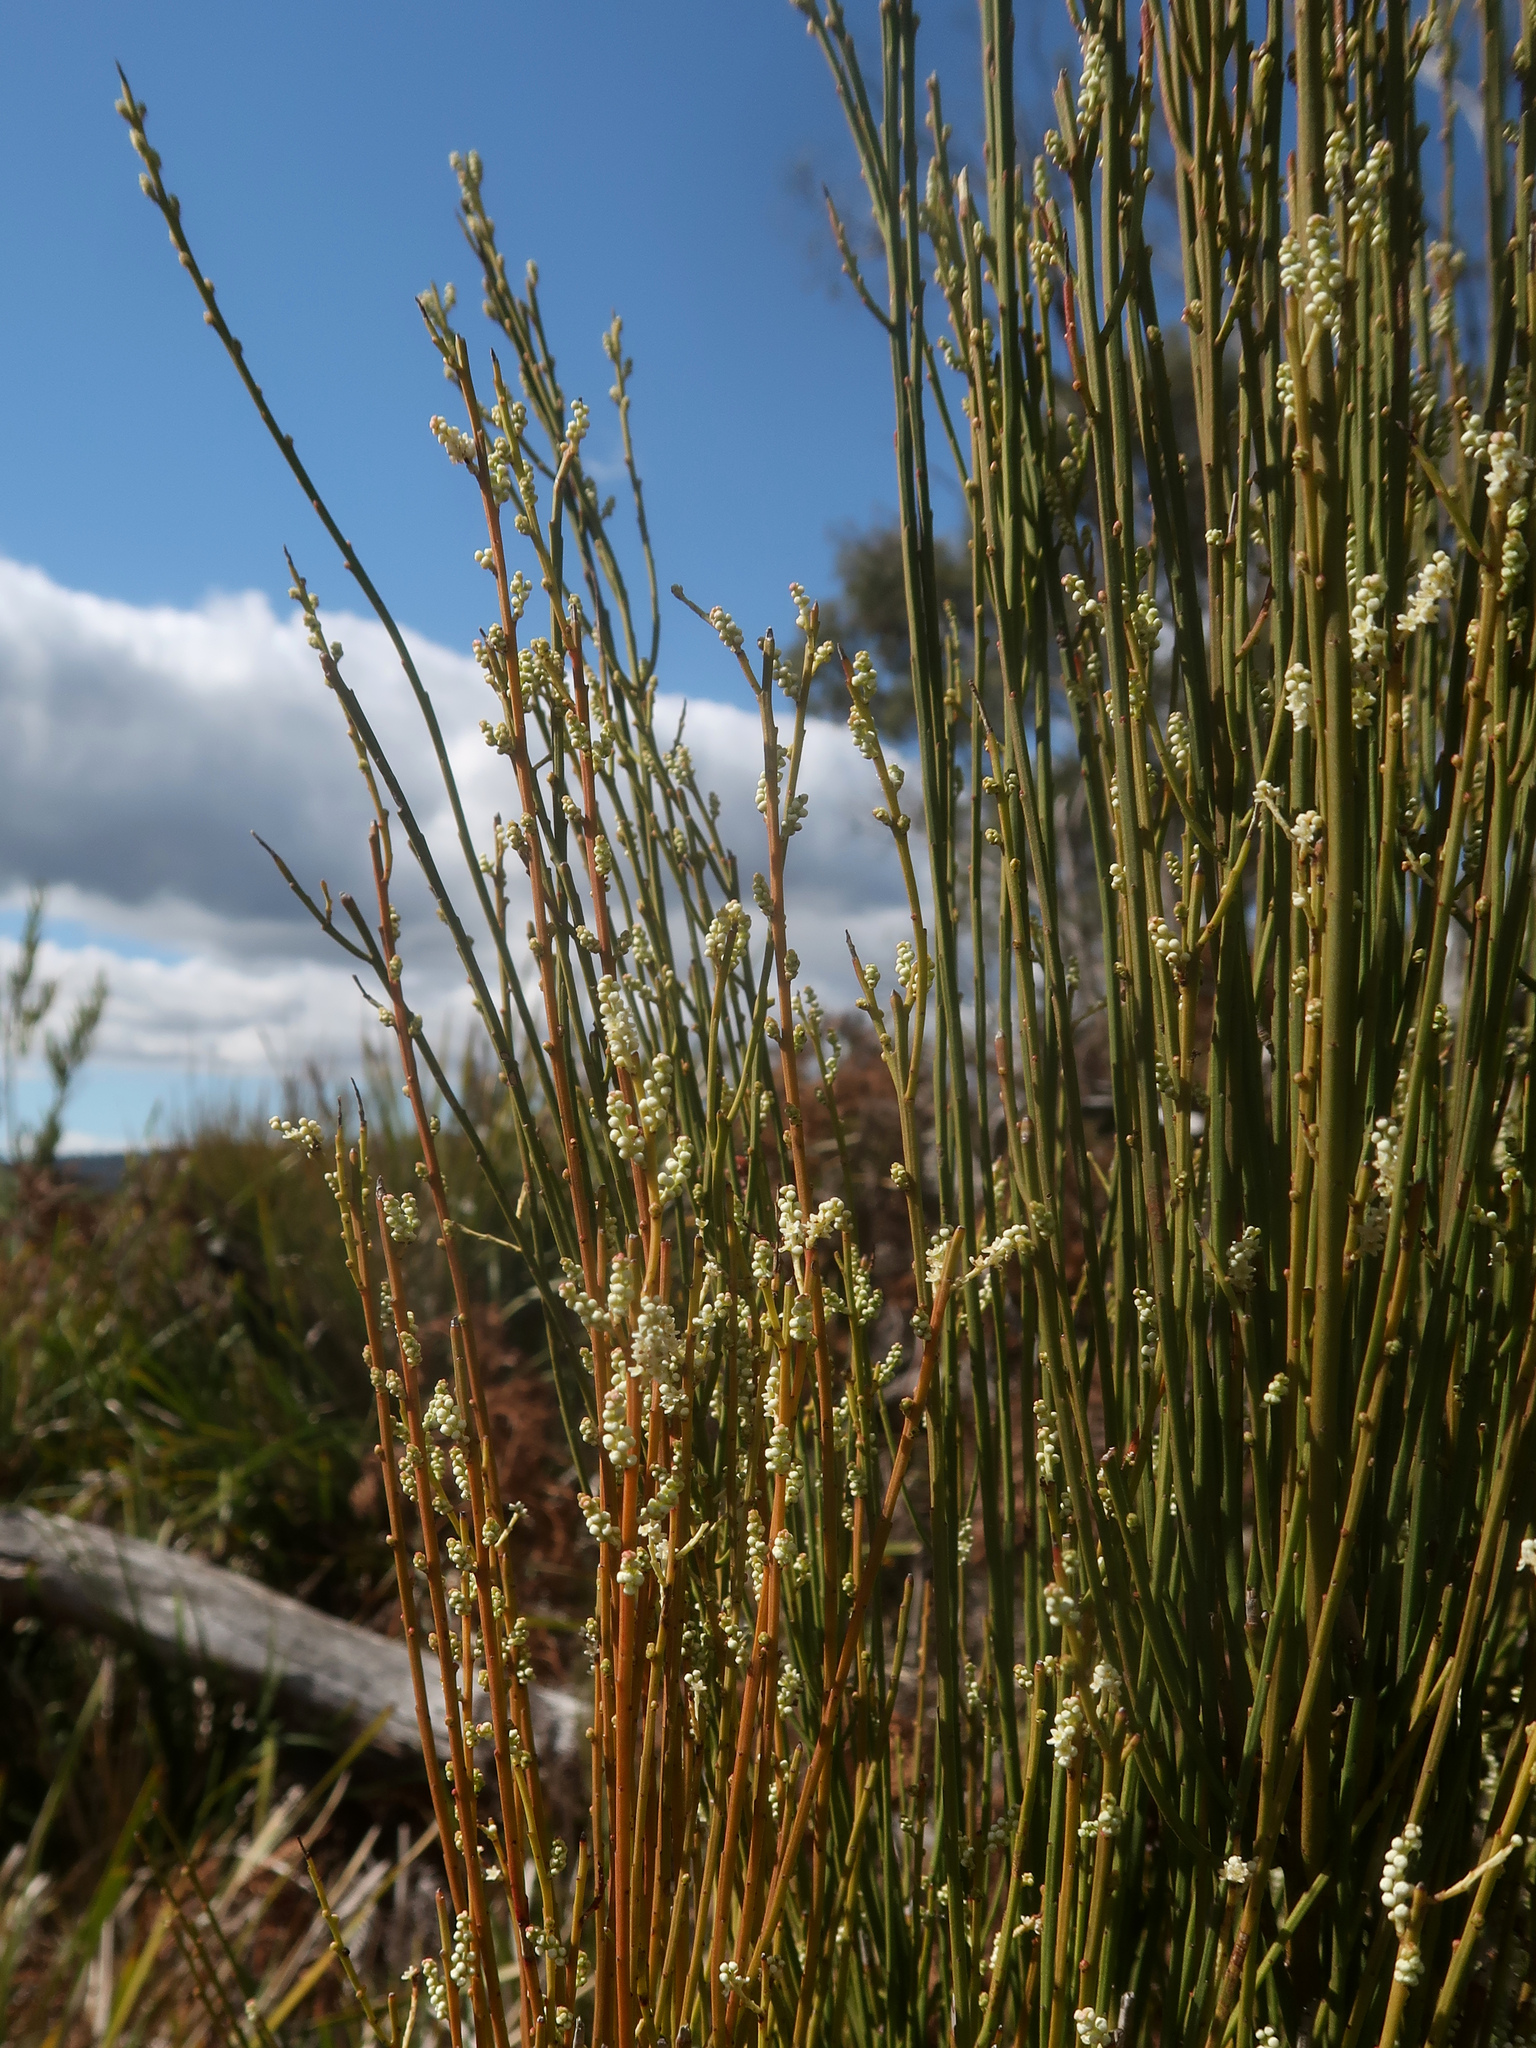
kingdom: Plantae
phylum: Tracheophyta
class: Magnoliopsida
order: Santalales
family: Amphorogynaceae
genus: Leptomeria
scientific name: Leptomeria drupacea
